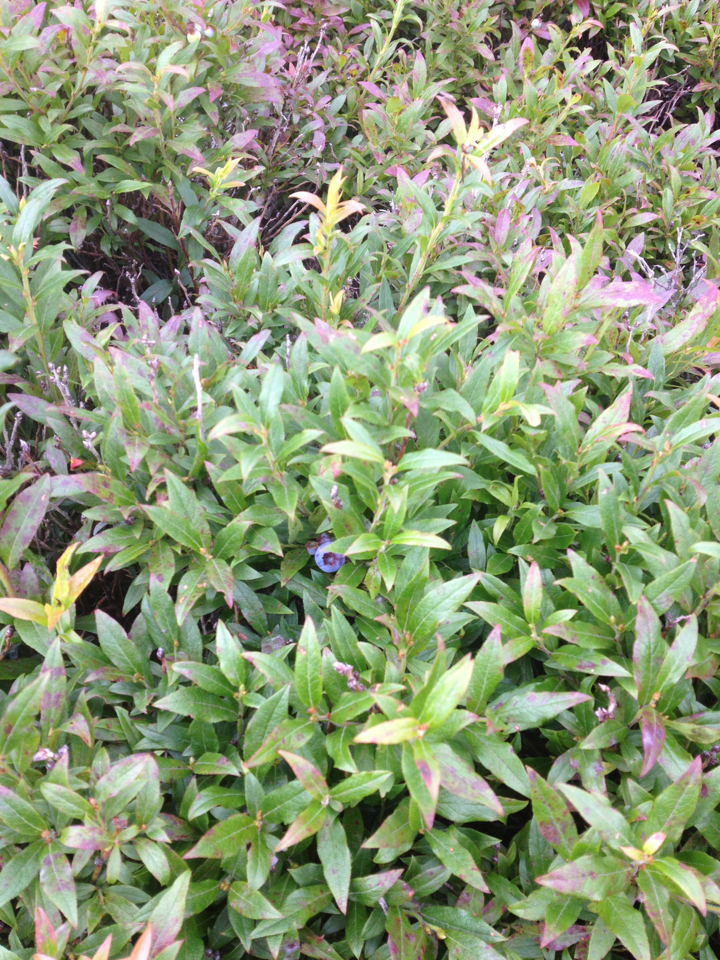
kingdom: Plantae
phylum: Tracheophyta
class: Magnoliopsida
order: Ericales
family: Ericaceae
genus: Vaccinium
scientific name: Vaccinium angustifolium
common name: Early lowbush blueberry
